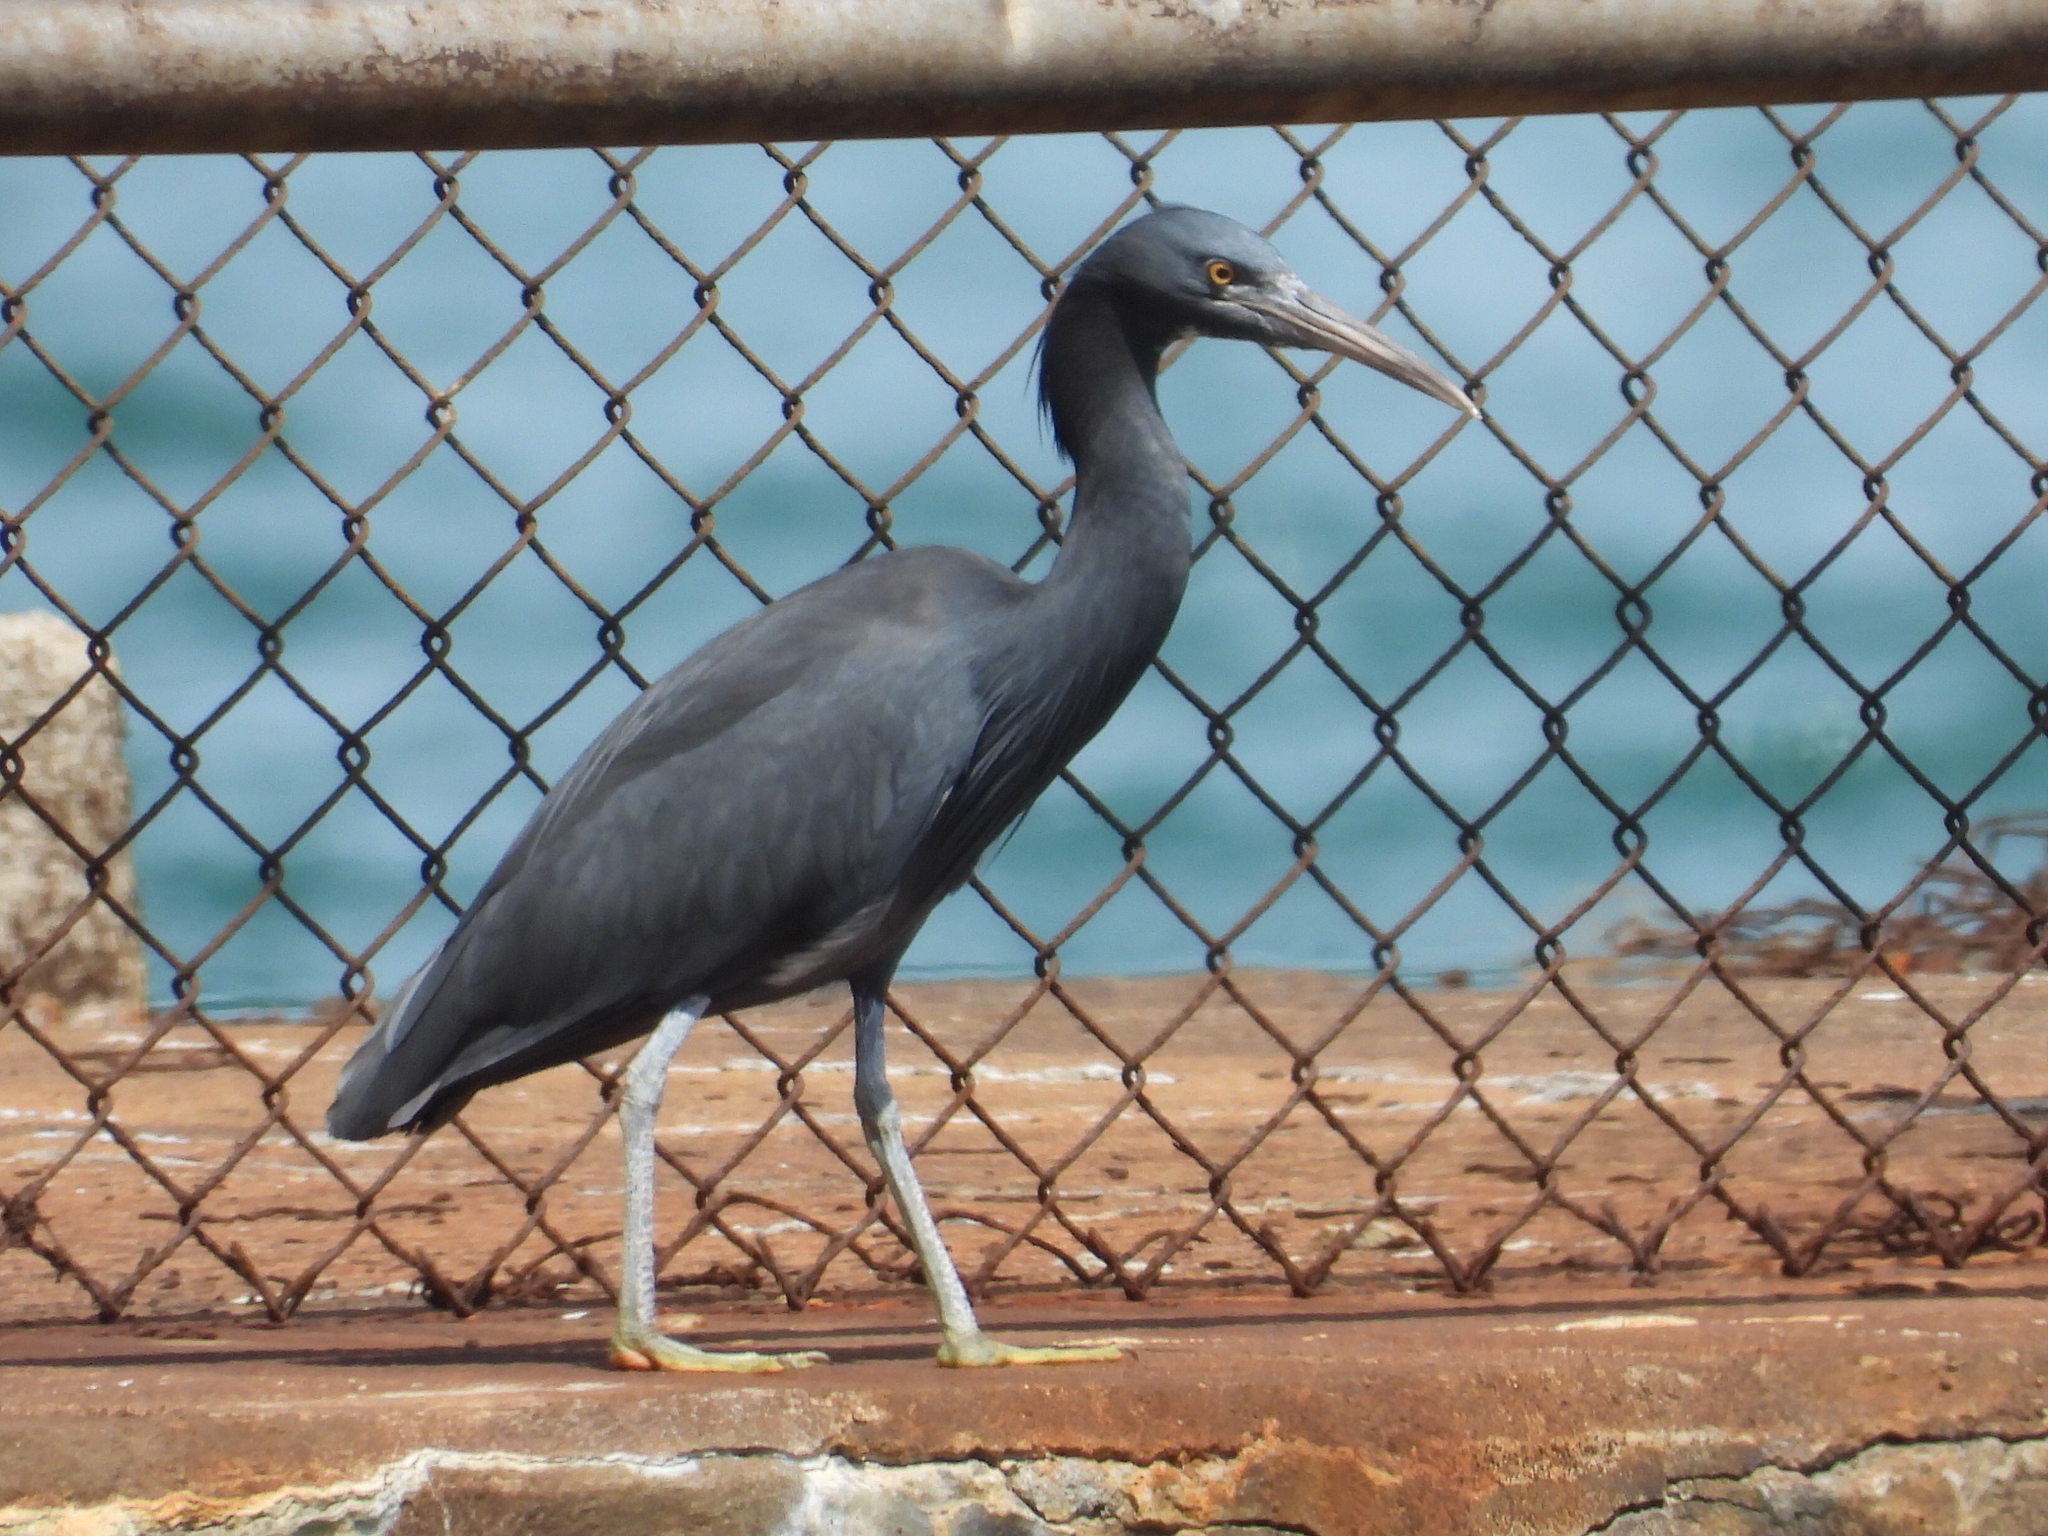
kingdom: Animalia
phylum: Chordata
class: Aves
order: Pelecaniformes
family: Ardeidae
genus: Egretta
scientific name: Egretta sacra
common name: Pacific reef heron
